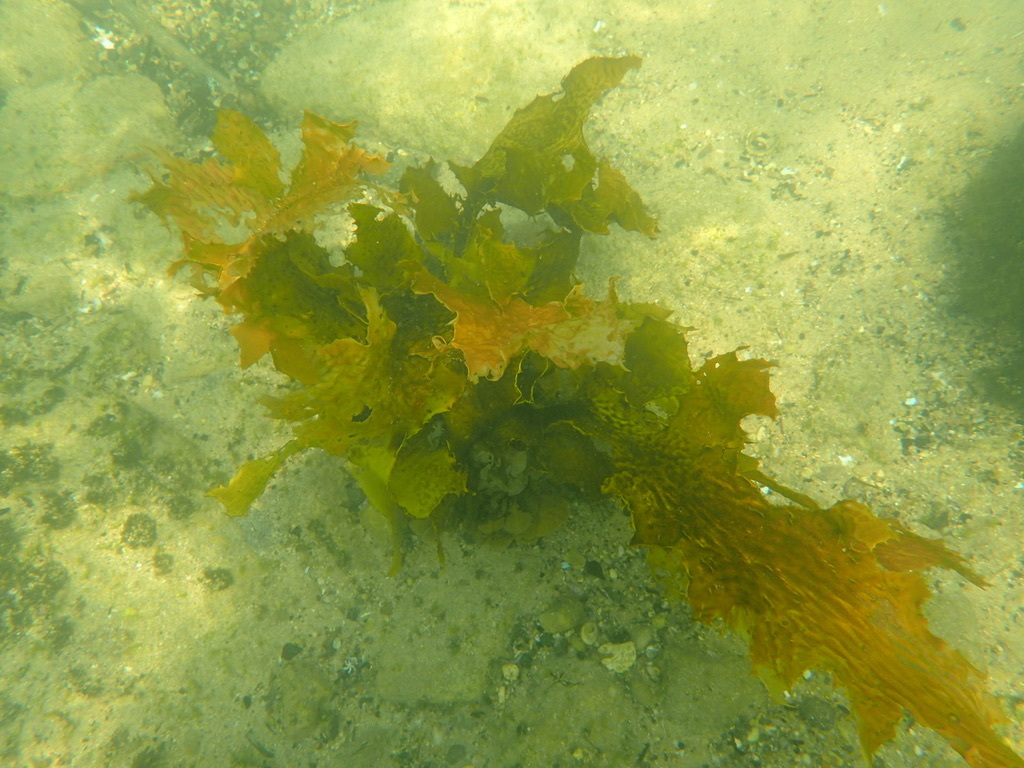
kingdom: Chromista
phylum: Ochrophyta
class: Phaeophyceae
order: Laminariales
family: Lessoniaceae
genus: Ecklonia
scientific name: Ecklonia radiata
